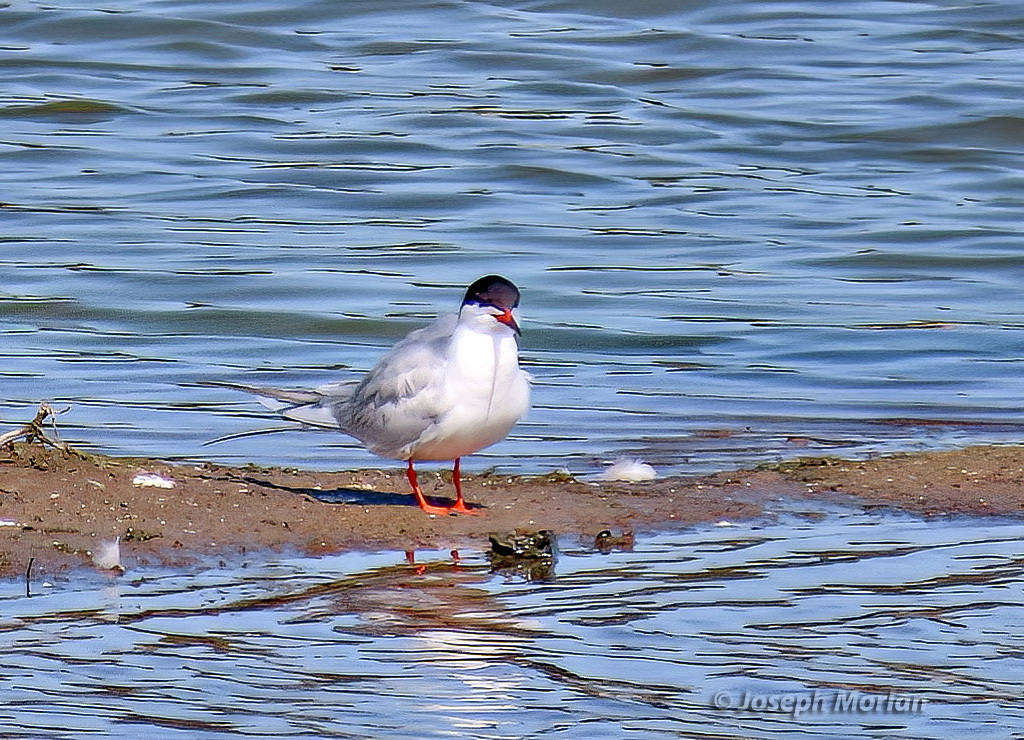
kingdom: Animalia
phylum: Chordata
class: Aves
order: Charadriiformes
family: Laridae
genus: Sterna
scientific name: Sterna forsteri
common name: Forster's tern
